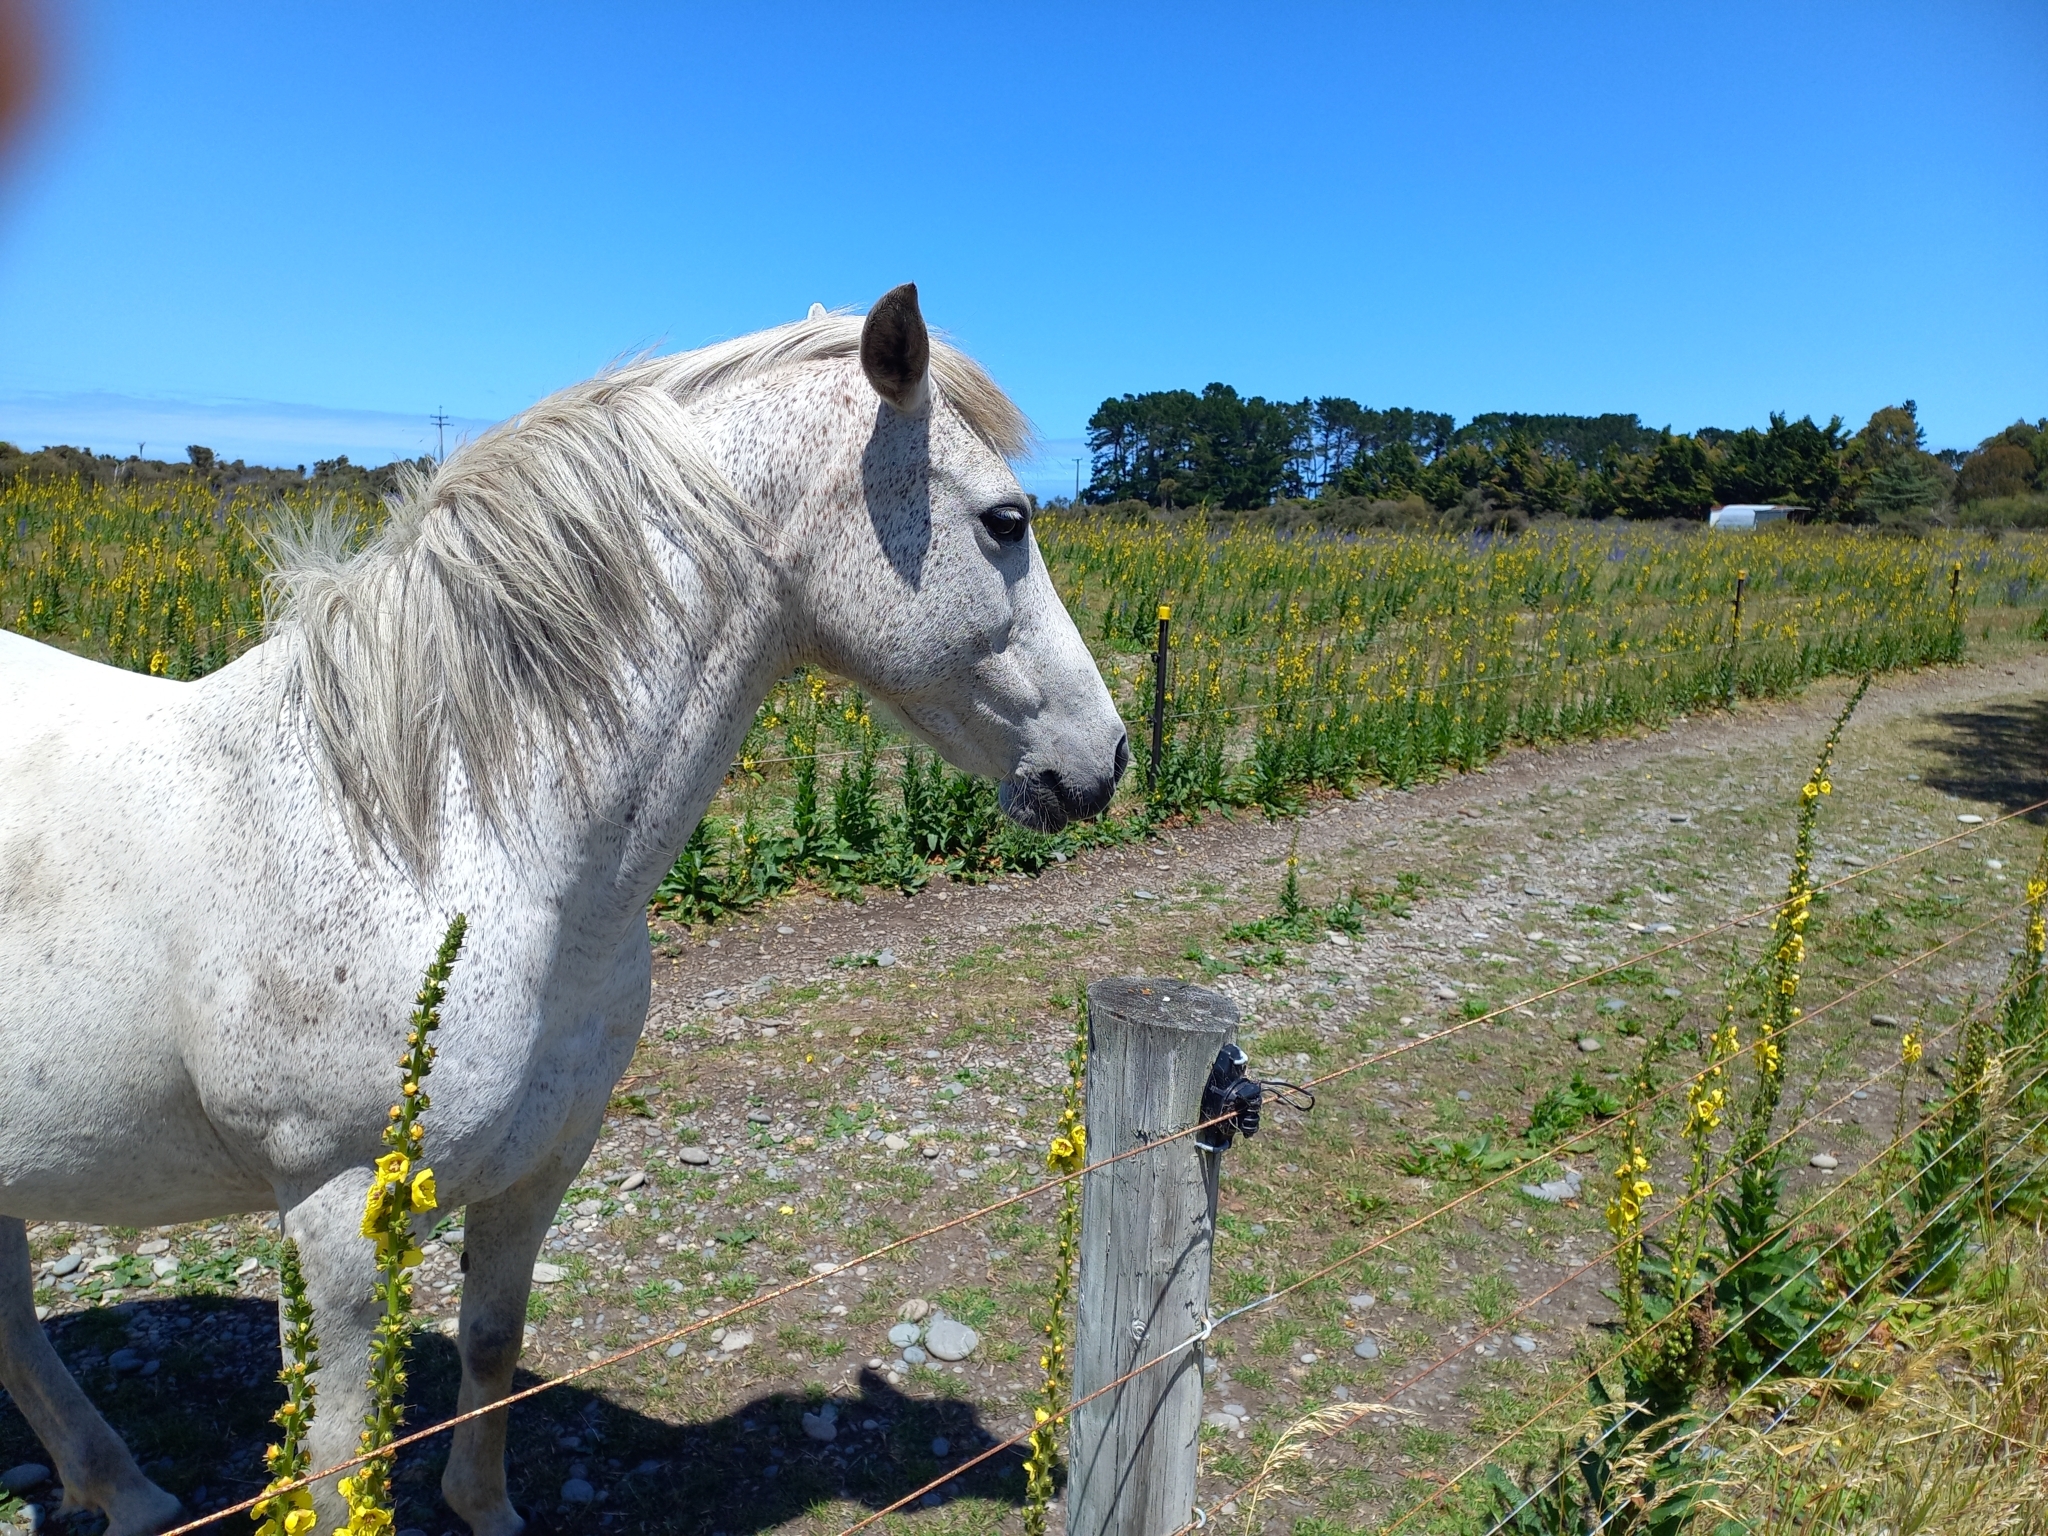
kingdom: Plantae
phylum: Tracheophyta
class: Magnoliopsida
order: Lamiales
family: Scrophulariaceae
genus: Verbascum
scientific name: Verbascum virgatum
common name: Twiggy mullein
